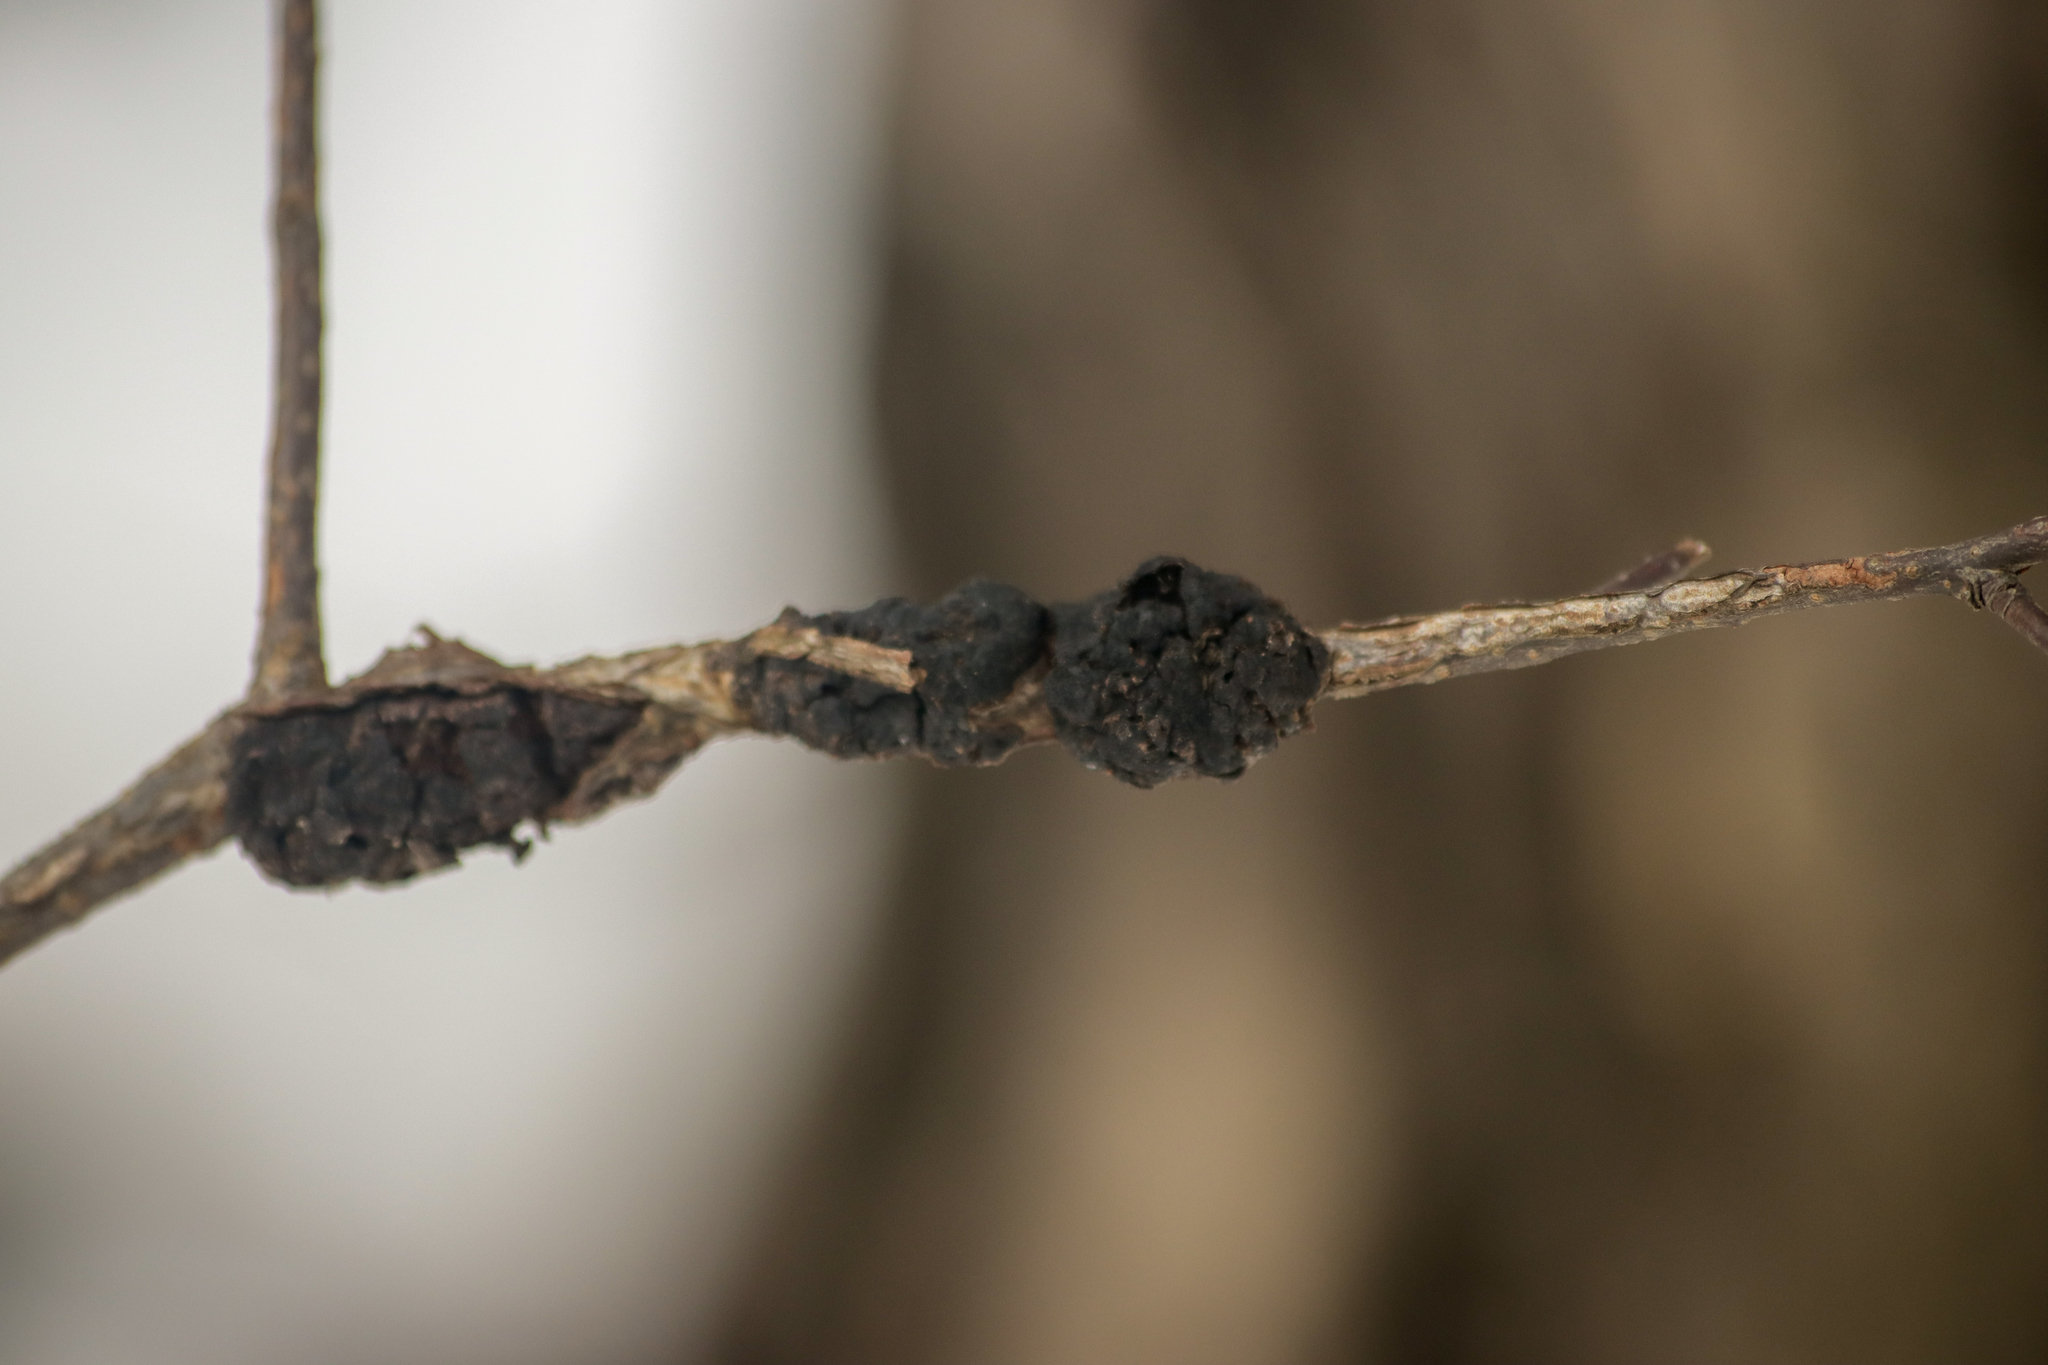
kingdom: Fungi
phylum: Ascomycota
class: Dothideomycetes
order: Venturiales
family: Venturiaceae
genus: Apiosporina
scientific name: Apiosporina morbosa
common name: Black knot
